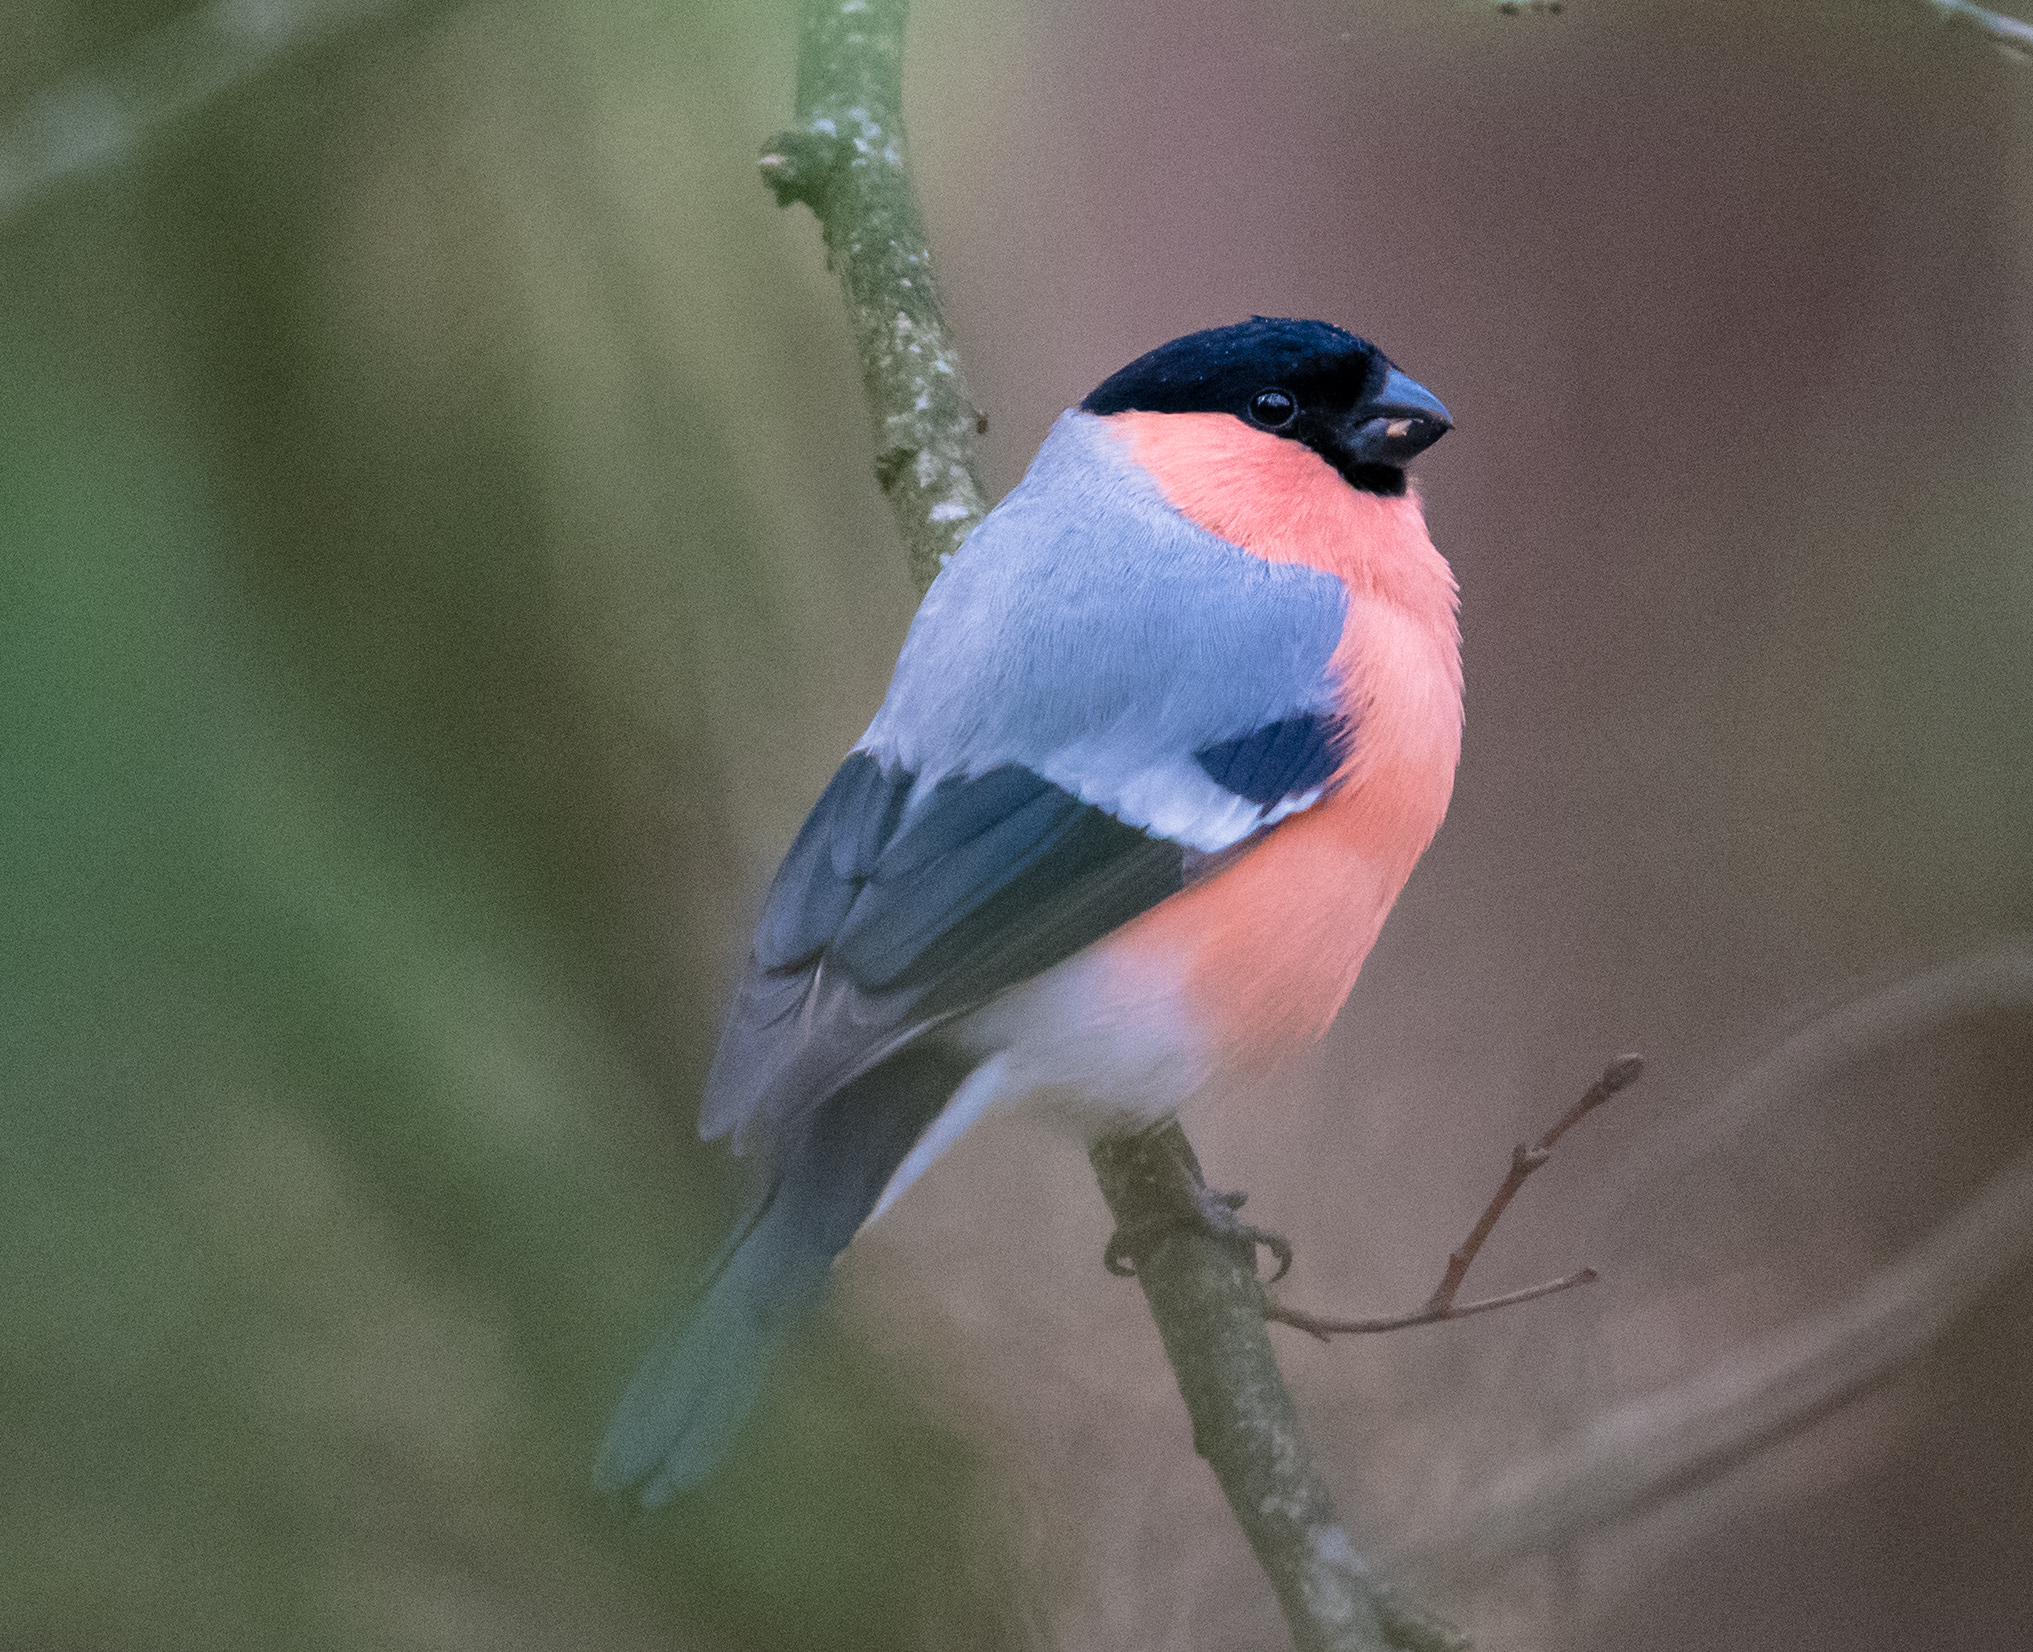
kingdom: Animalia
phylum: Chordata
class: Aves
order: Passeriformes
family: Fringillidae
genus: Pyrrhula
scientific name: Pyrrhula pyrrhula
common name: Eurasian bullfinch
